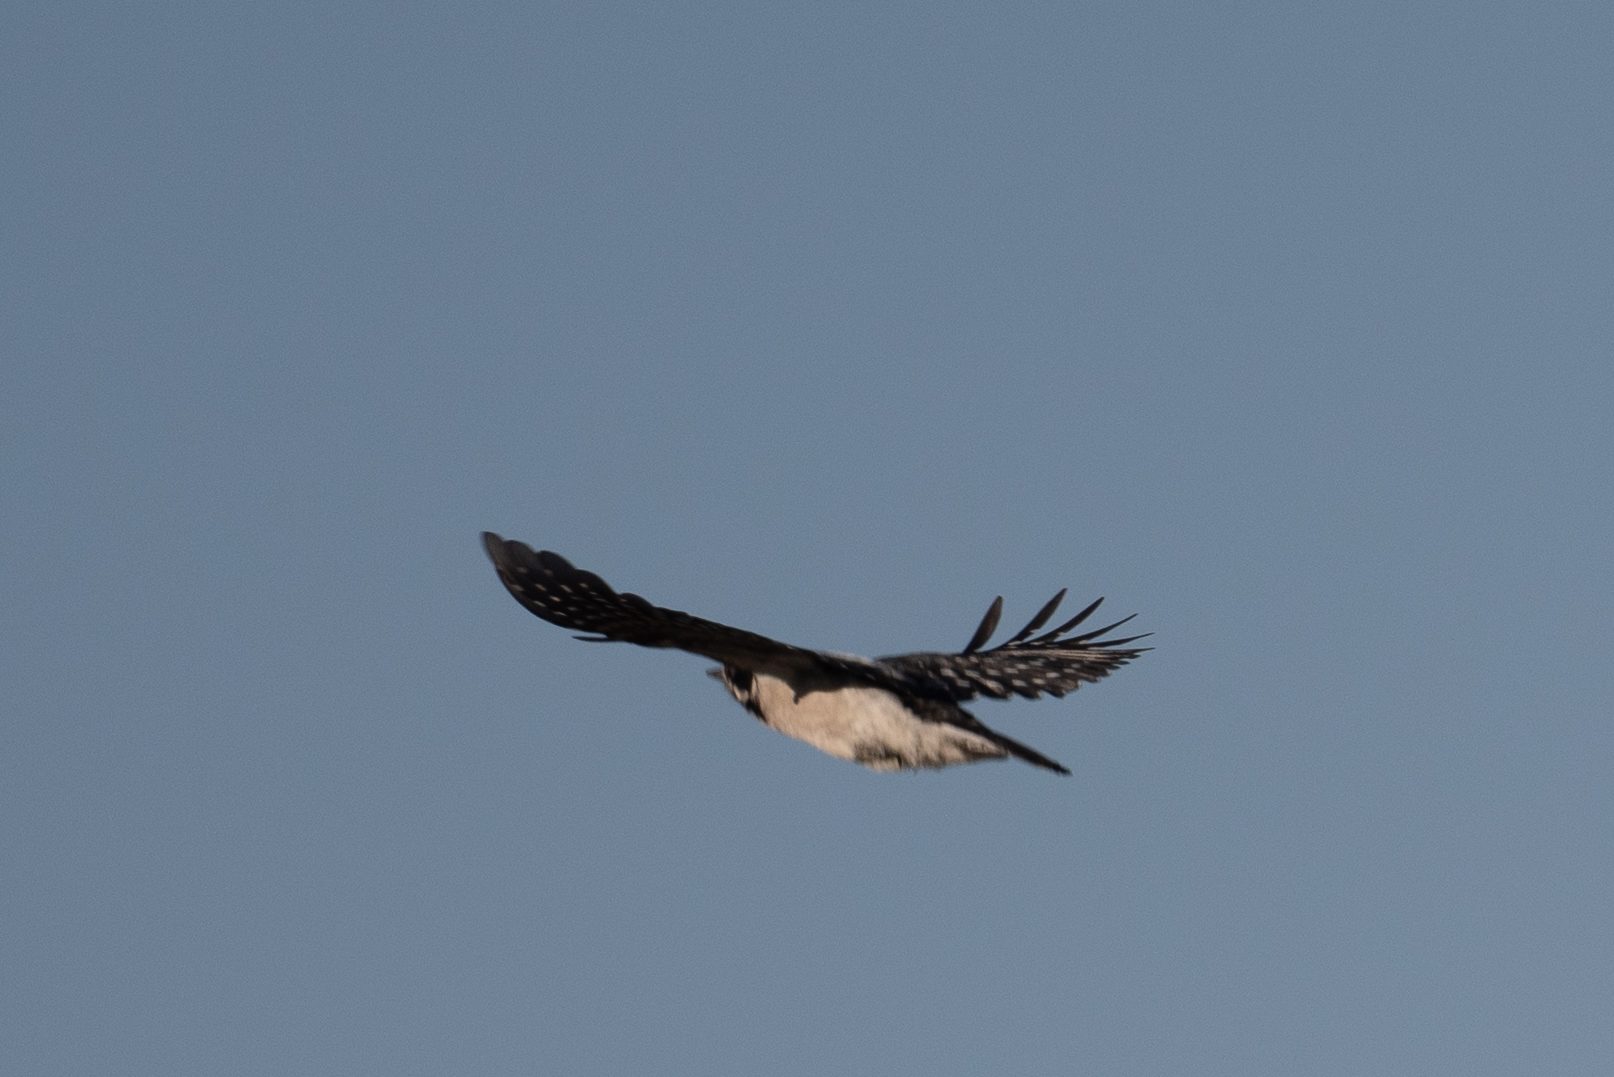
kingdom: Animalia
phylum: Chordata
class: Aves
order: Piciformes
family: Picidae
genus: Dryobates
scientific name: Dryobates pubescens
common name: Downy woodpecker
